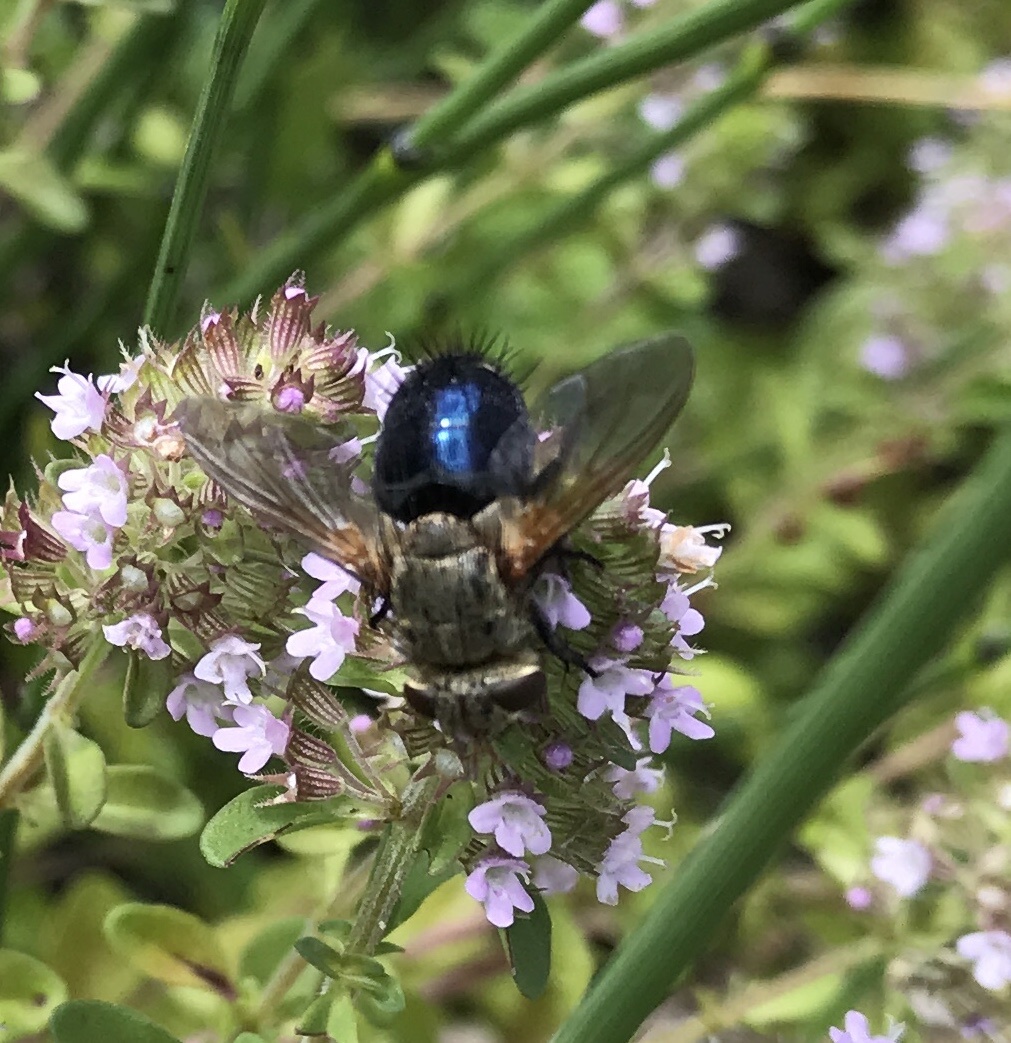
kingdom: Animalia
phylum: Arthropoda
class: Insecta
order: Diptera
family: Tachinidae
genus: Archytas
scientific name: Archytas
